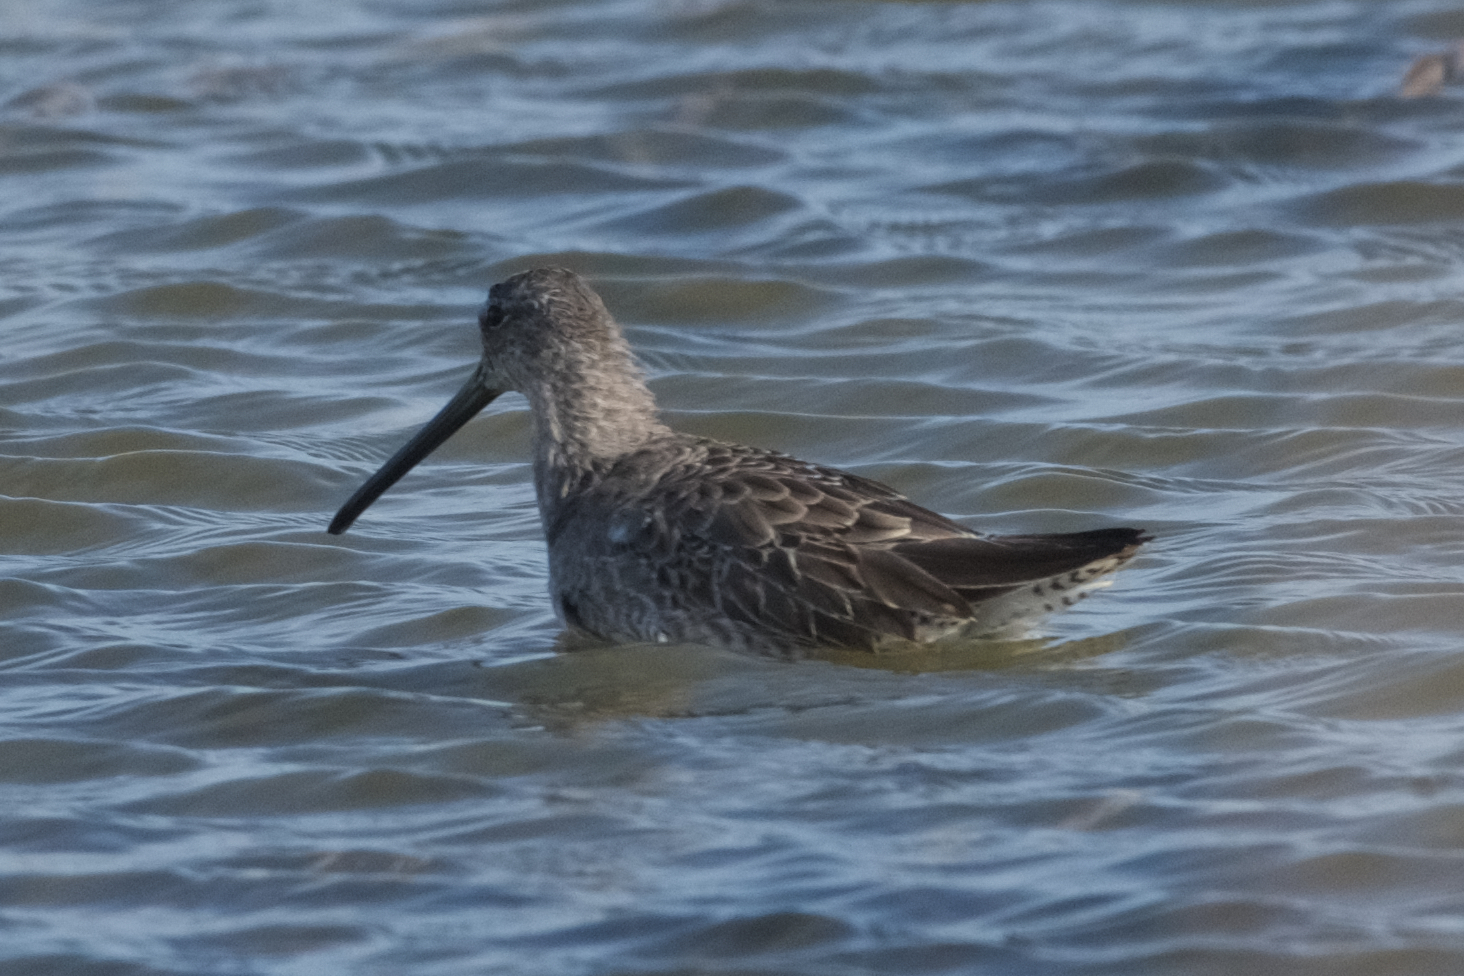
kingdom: Animalia
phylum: Chordata
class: Aves
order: Charadriiformes
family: Scolopacidae
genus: Limnodromus
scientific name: Limnodromus scolopaceus
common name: Long-billed dowitcher
